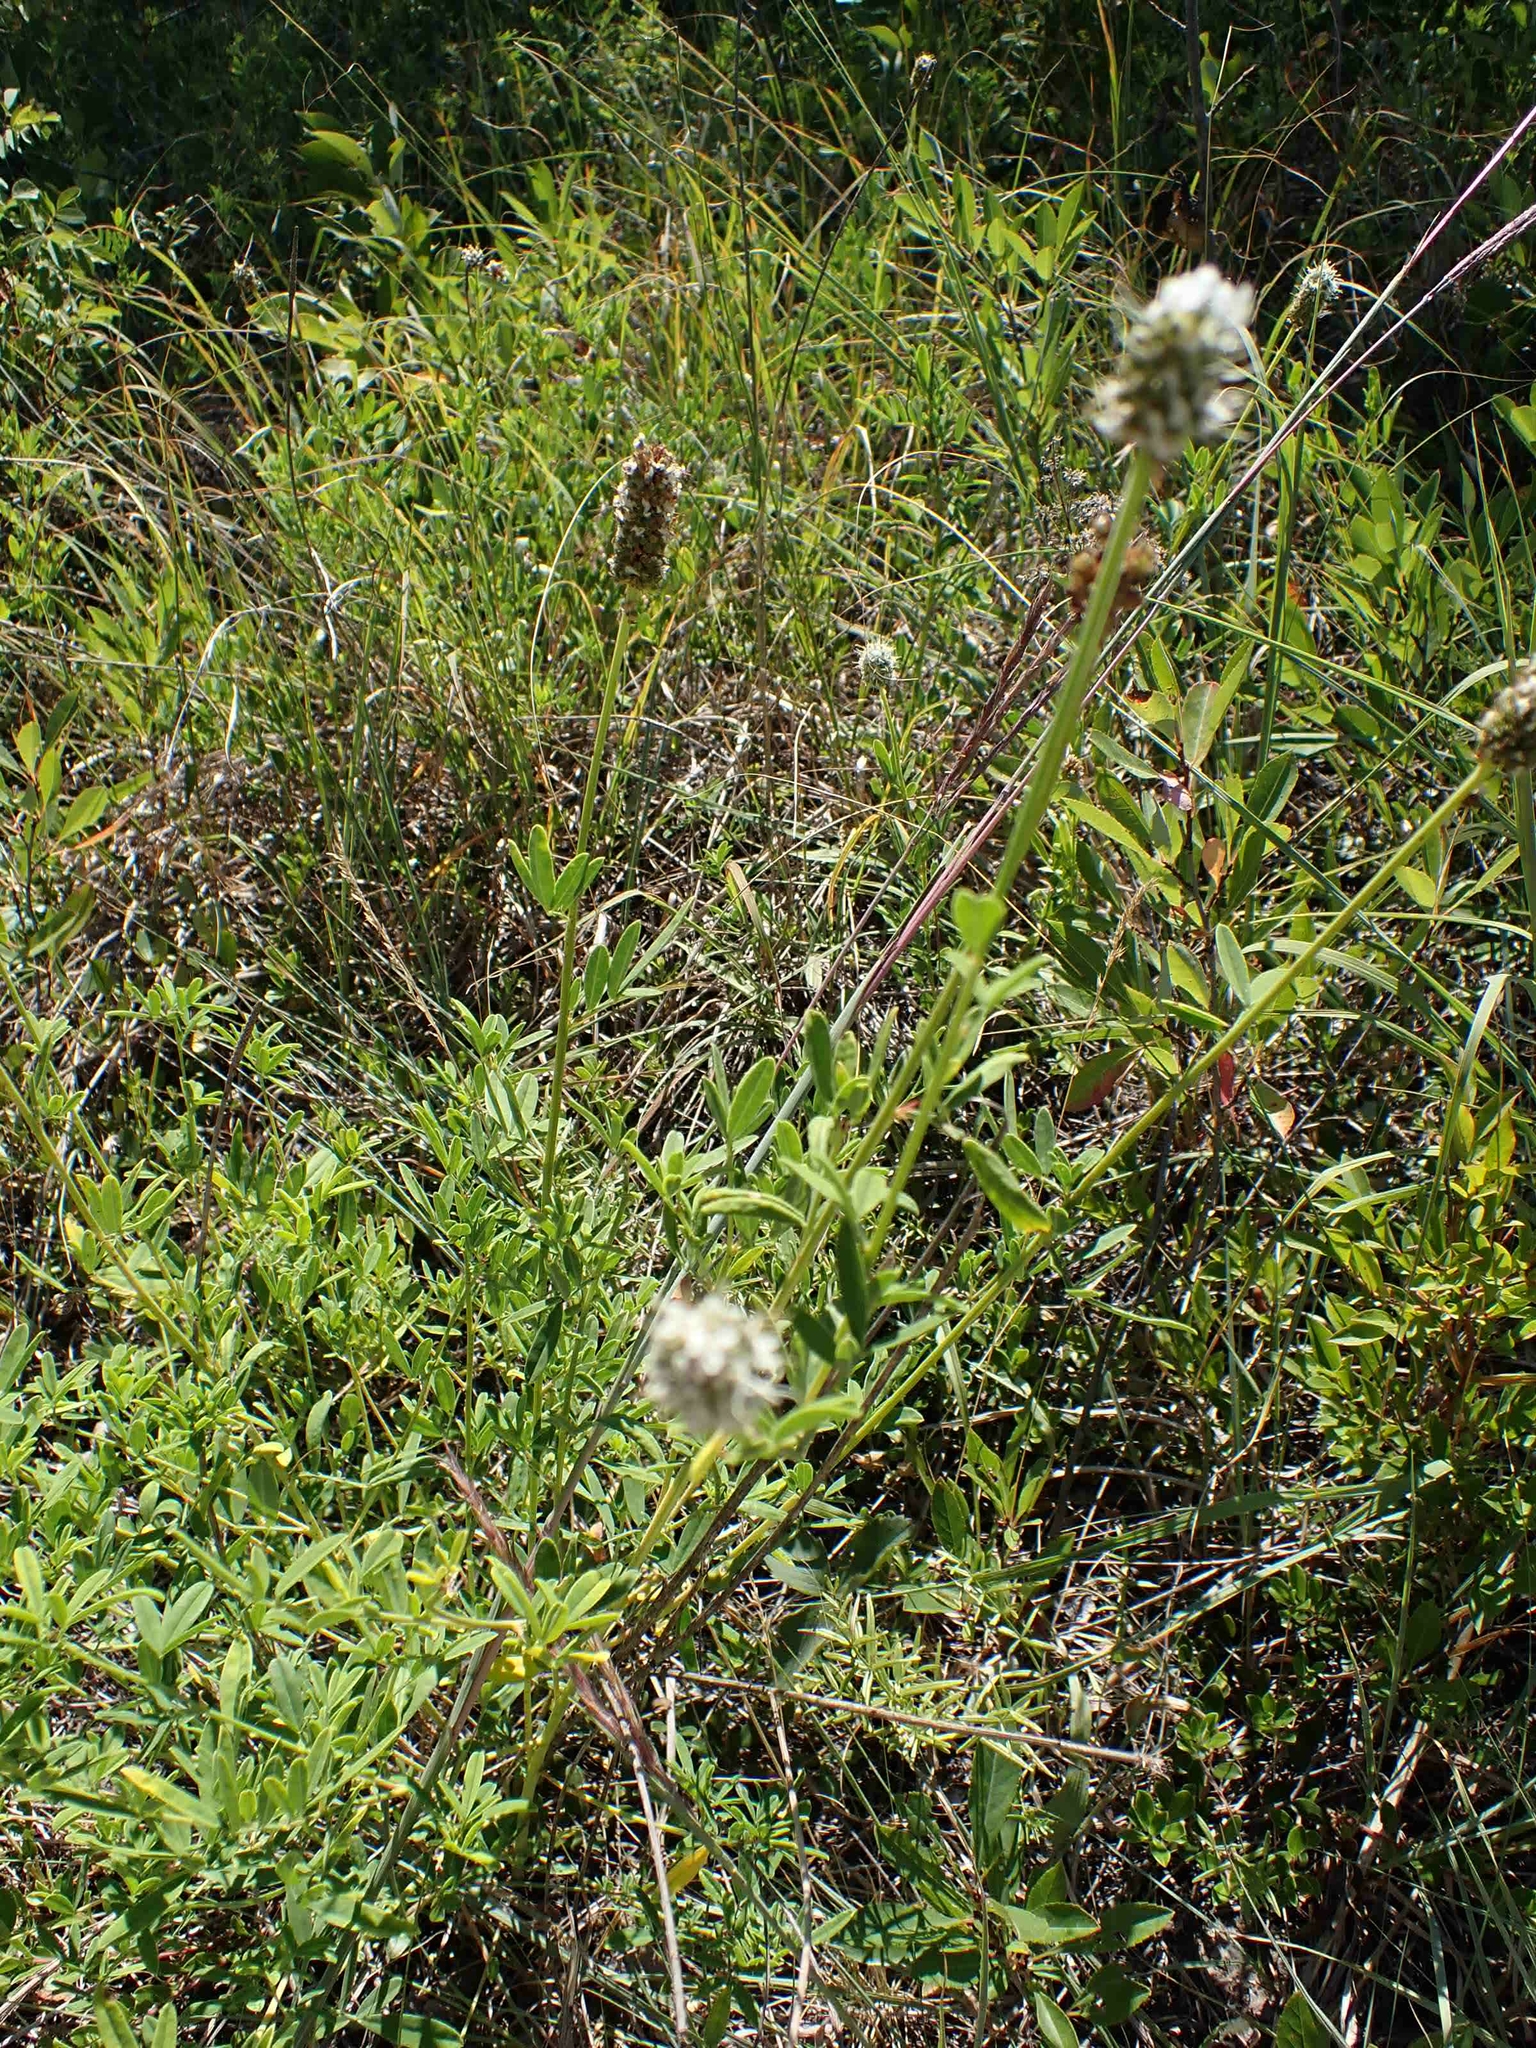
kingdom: Plantae
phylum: Tracheophyta
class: Magnoliopsida
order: Fabales
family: Fabaceae
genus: Dalea
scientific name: Dalea candida
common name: White prairie-clover
